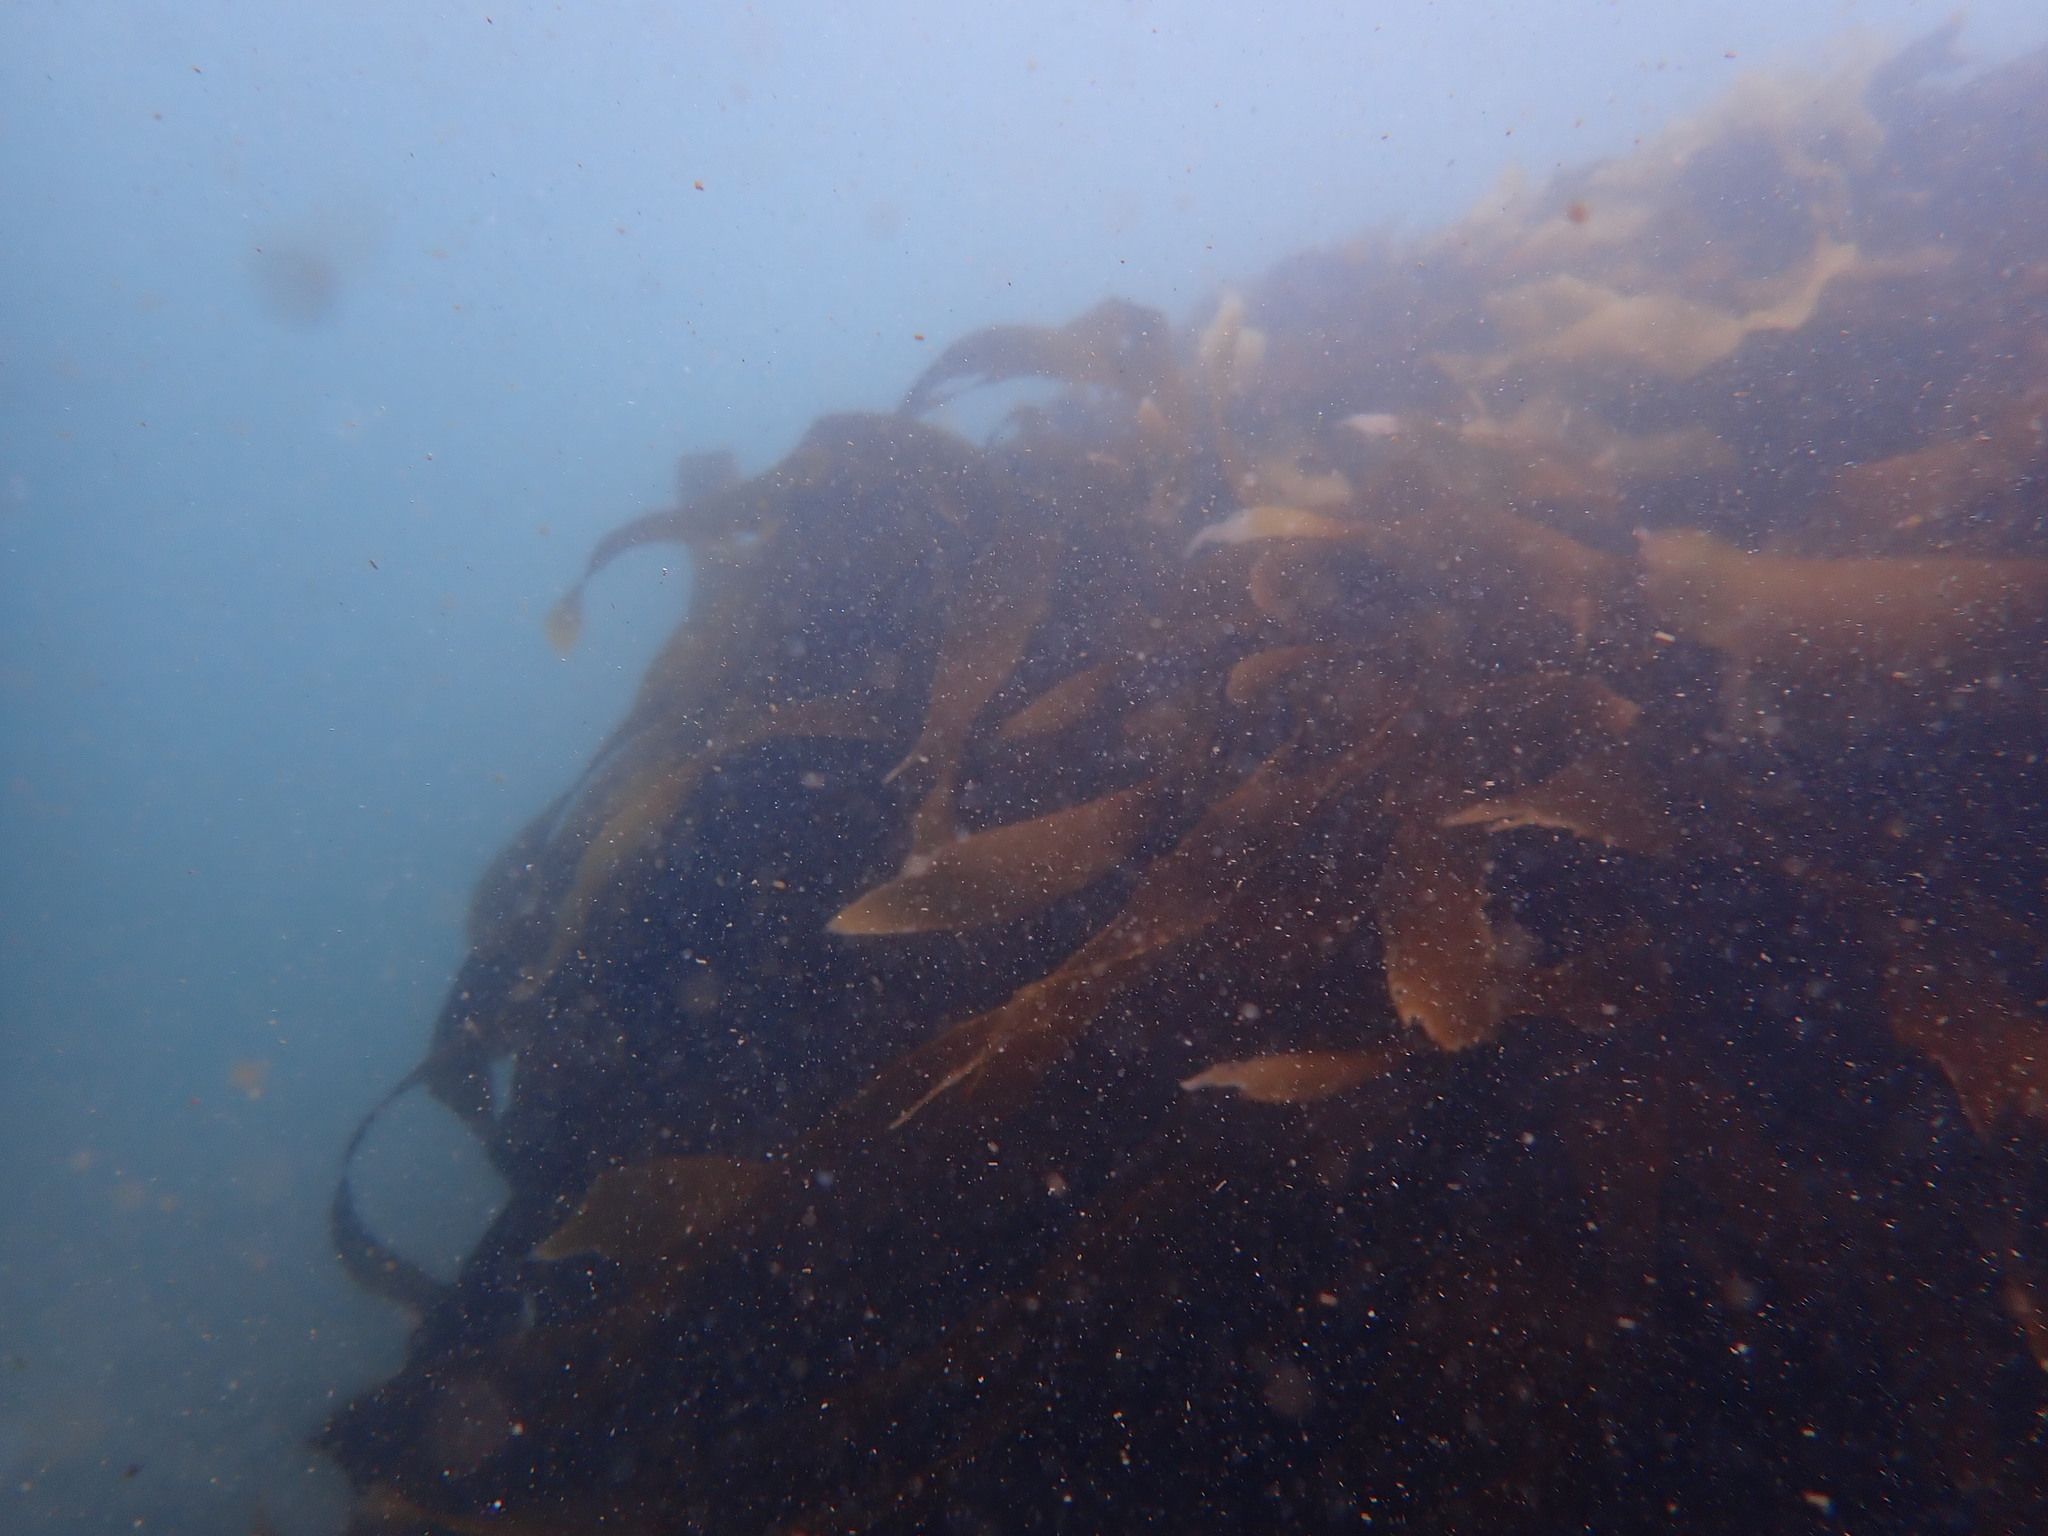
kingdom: Chromista
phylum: Ochrophyta
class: Phaeophyceae
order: Laminariales
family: Lessoniaceae
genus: Lessonia
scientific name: Lessonia
